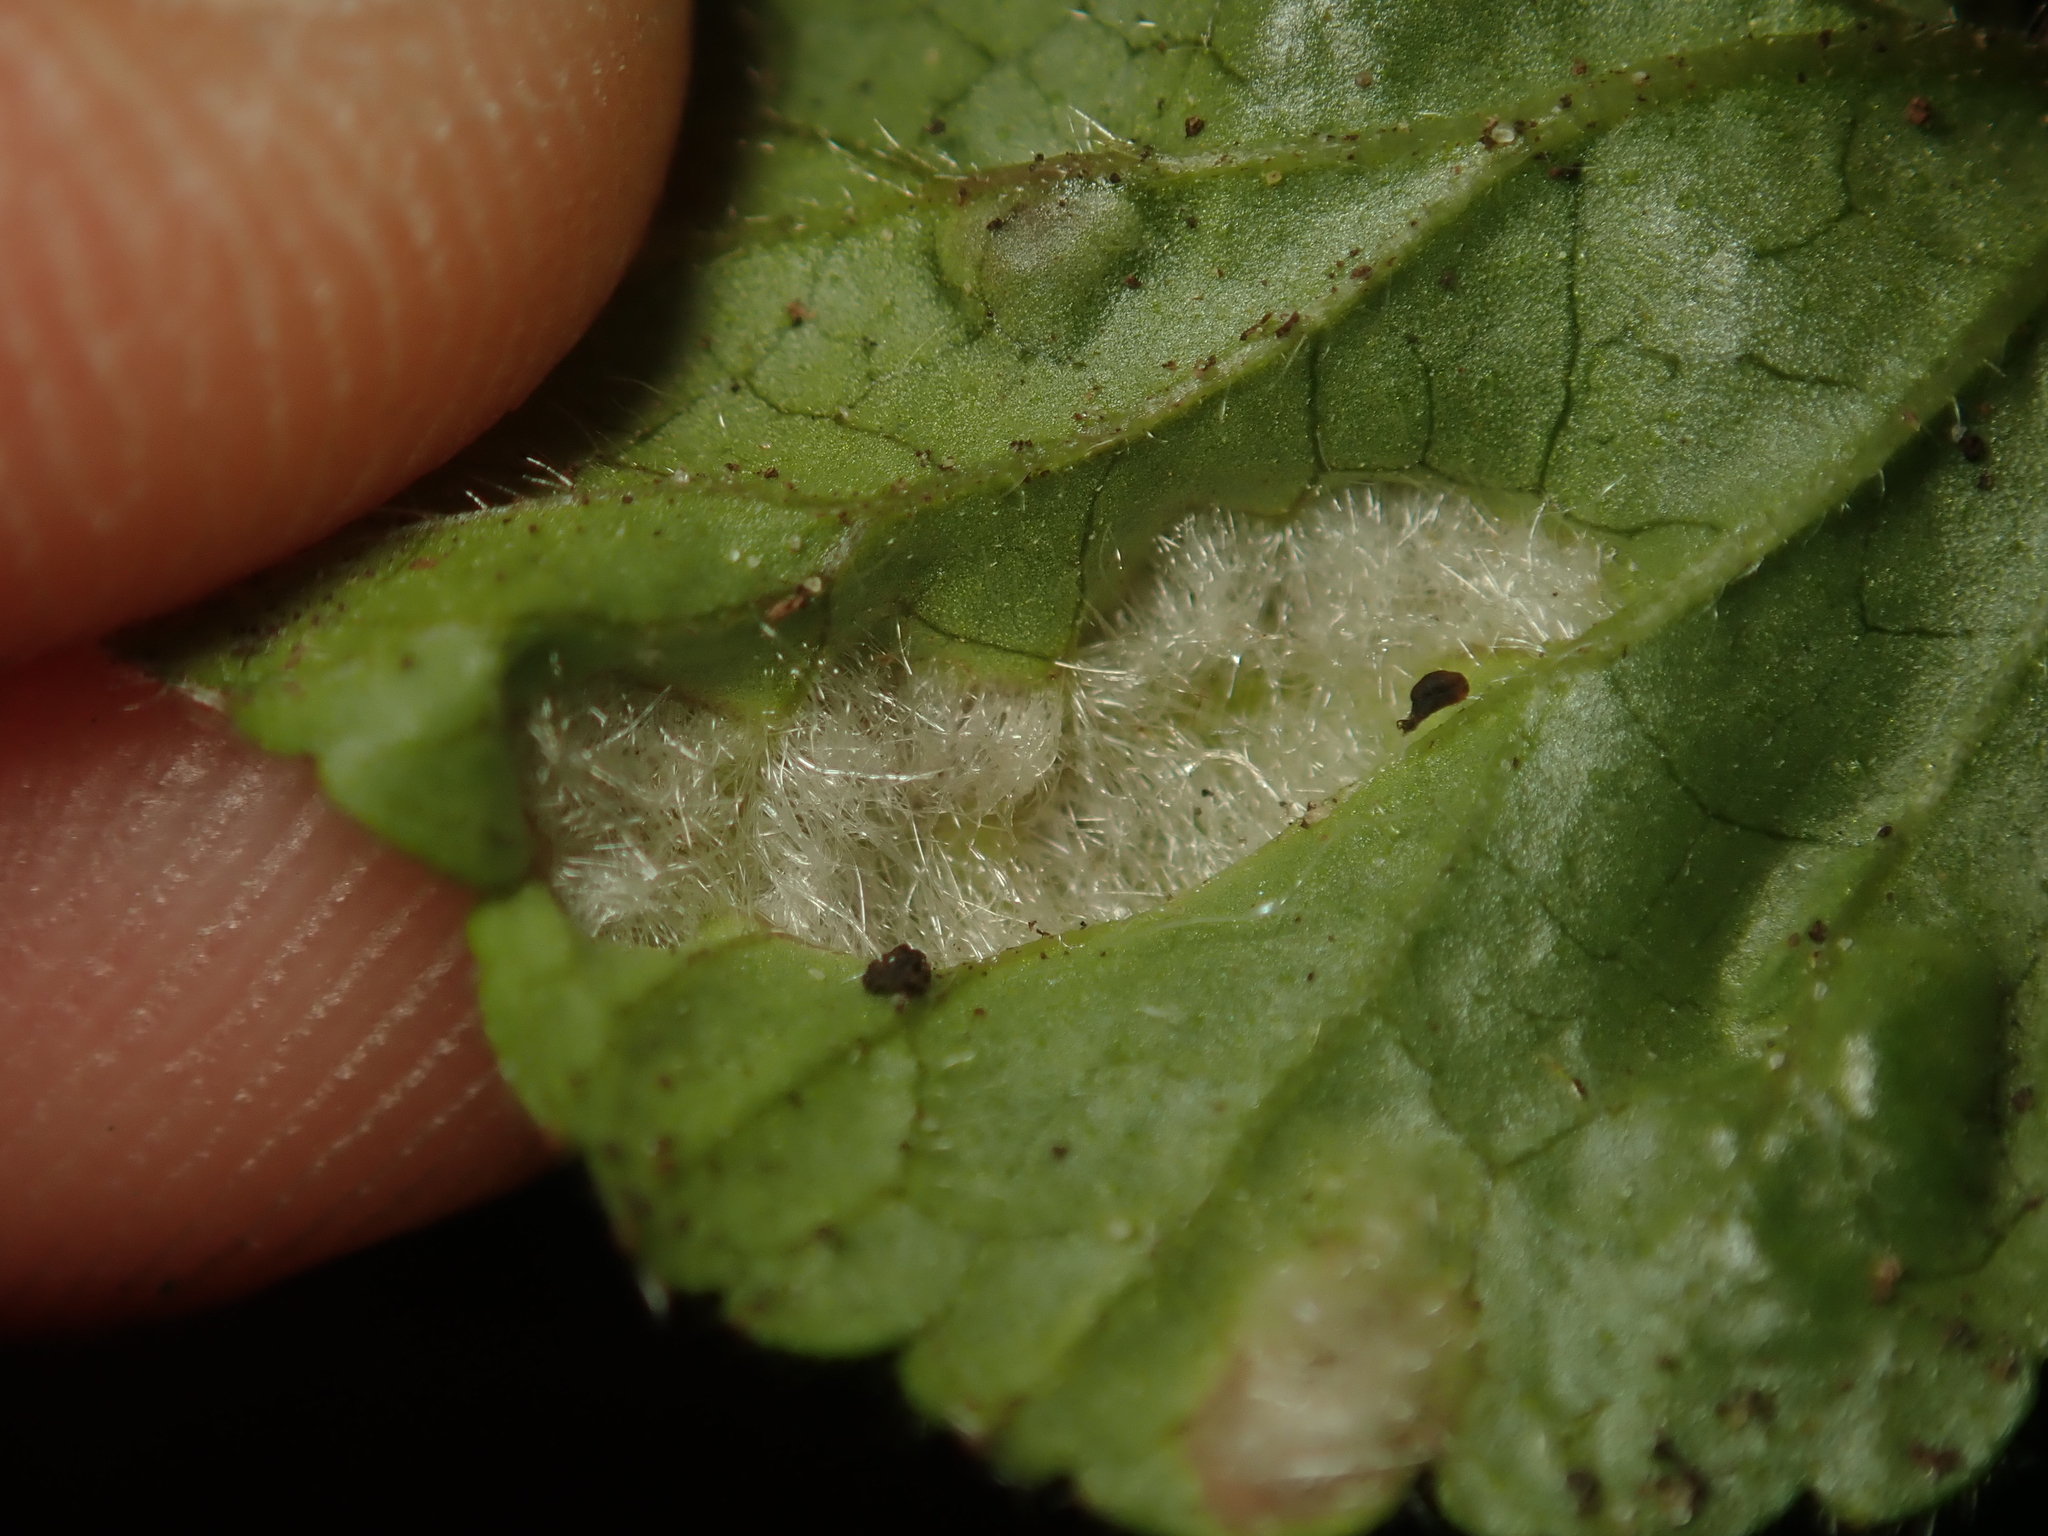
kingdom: Animalia
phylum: Arthropoda
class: Arachnida
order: Trombidiformes
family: Eriophyidae
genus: Cecidophyes
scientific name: Cecidophyes nudus
